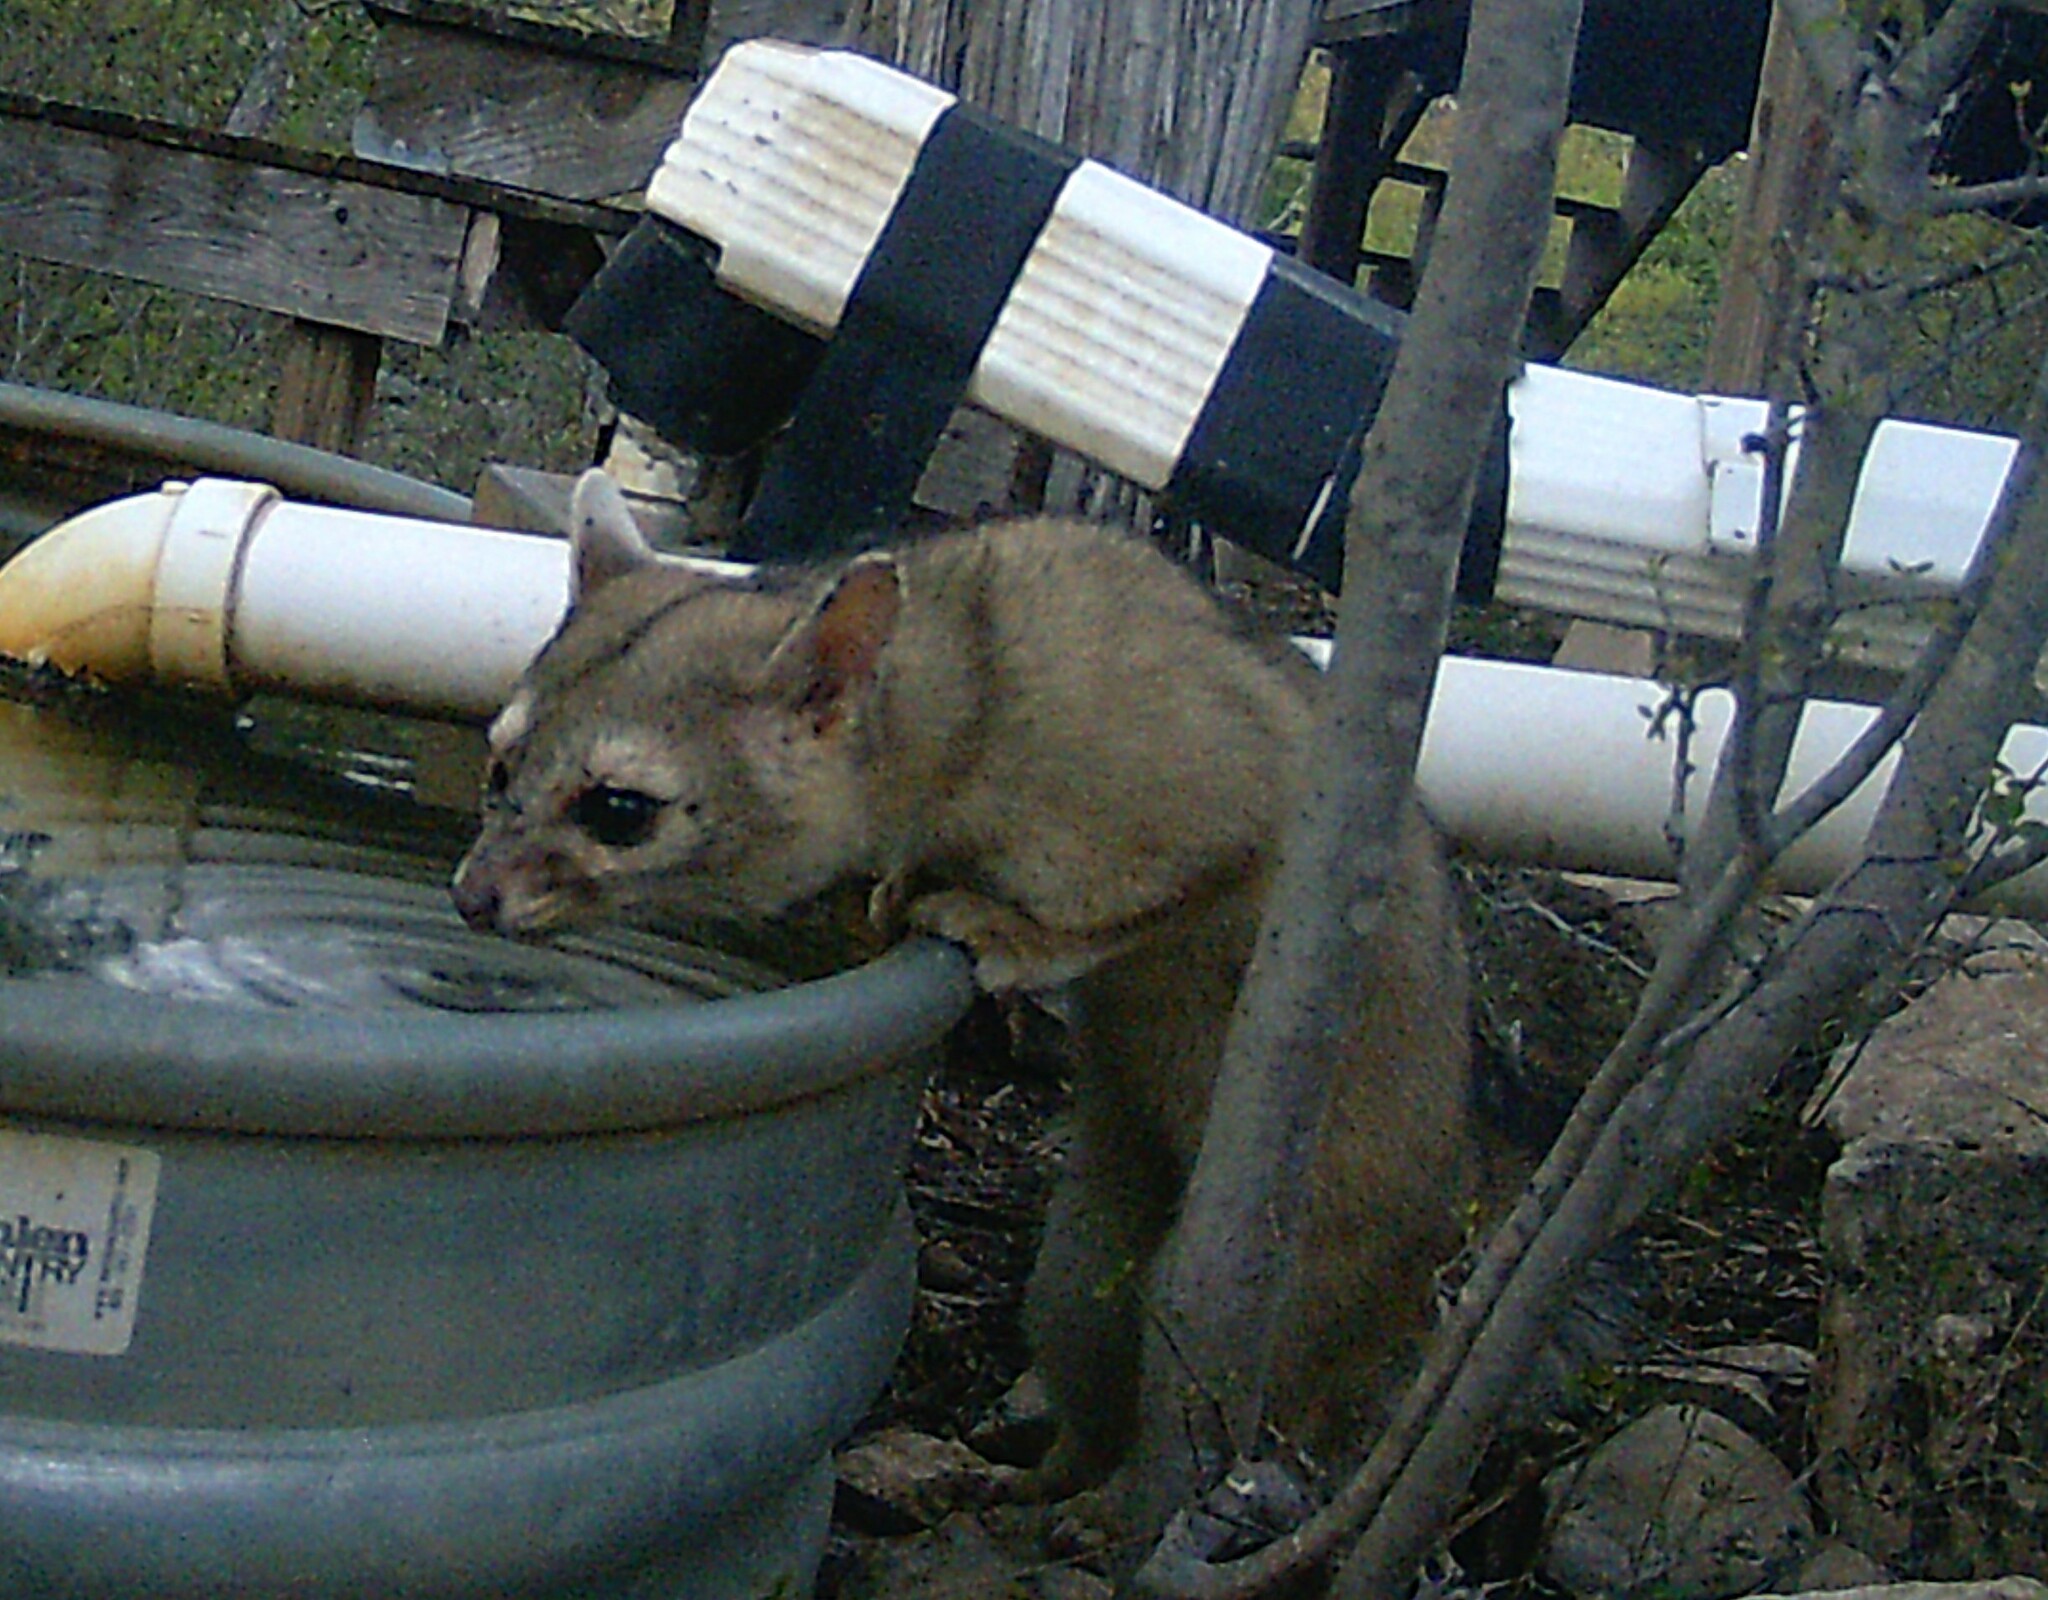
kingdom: Animalia
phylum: Chordata
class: Mammalia
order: Carnivora
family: Procyonidae
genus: Bassariscus
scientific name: Bassariscus astutus
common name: Ringtail
